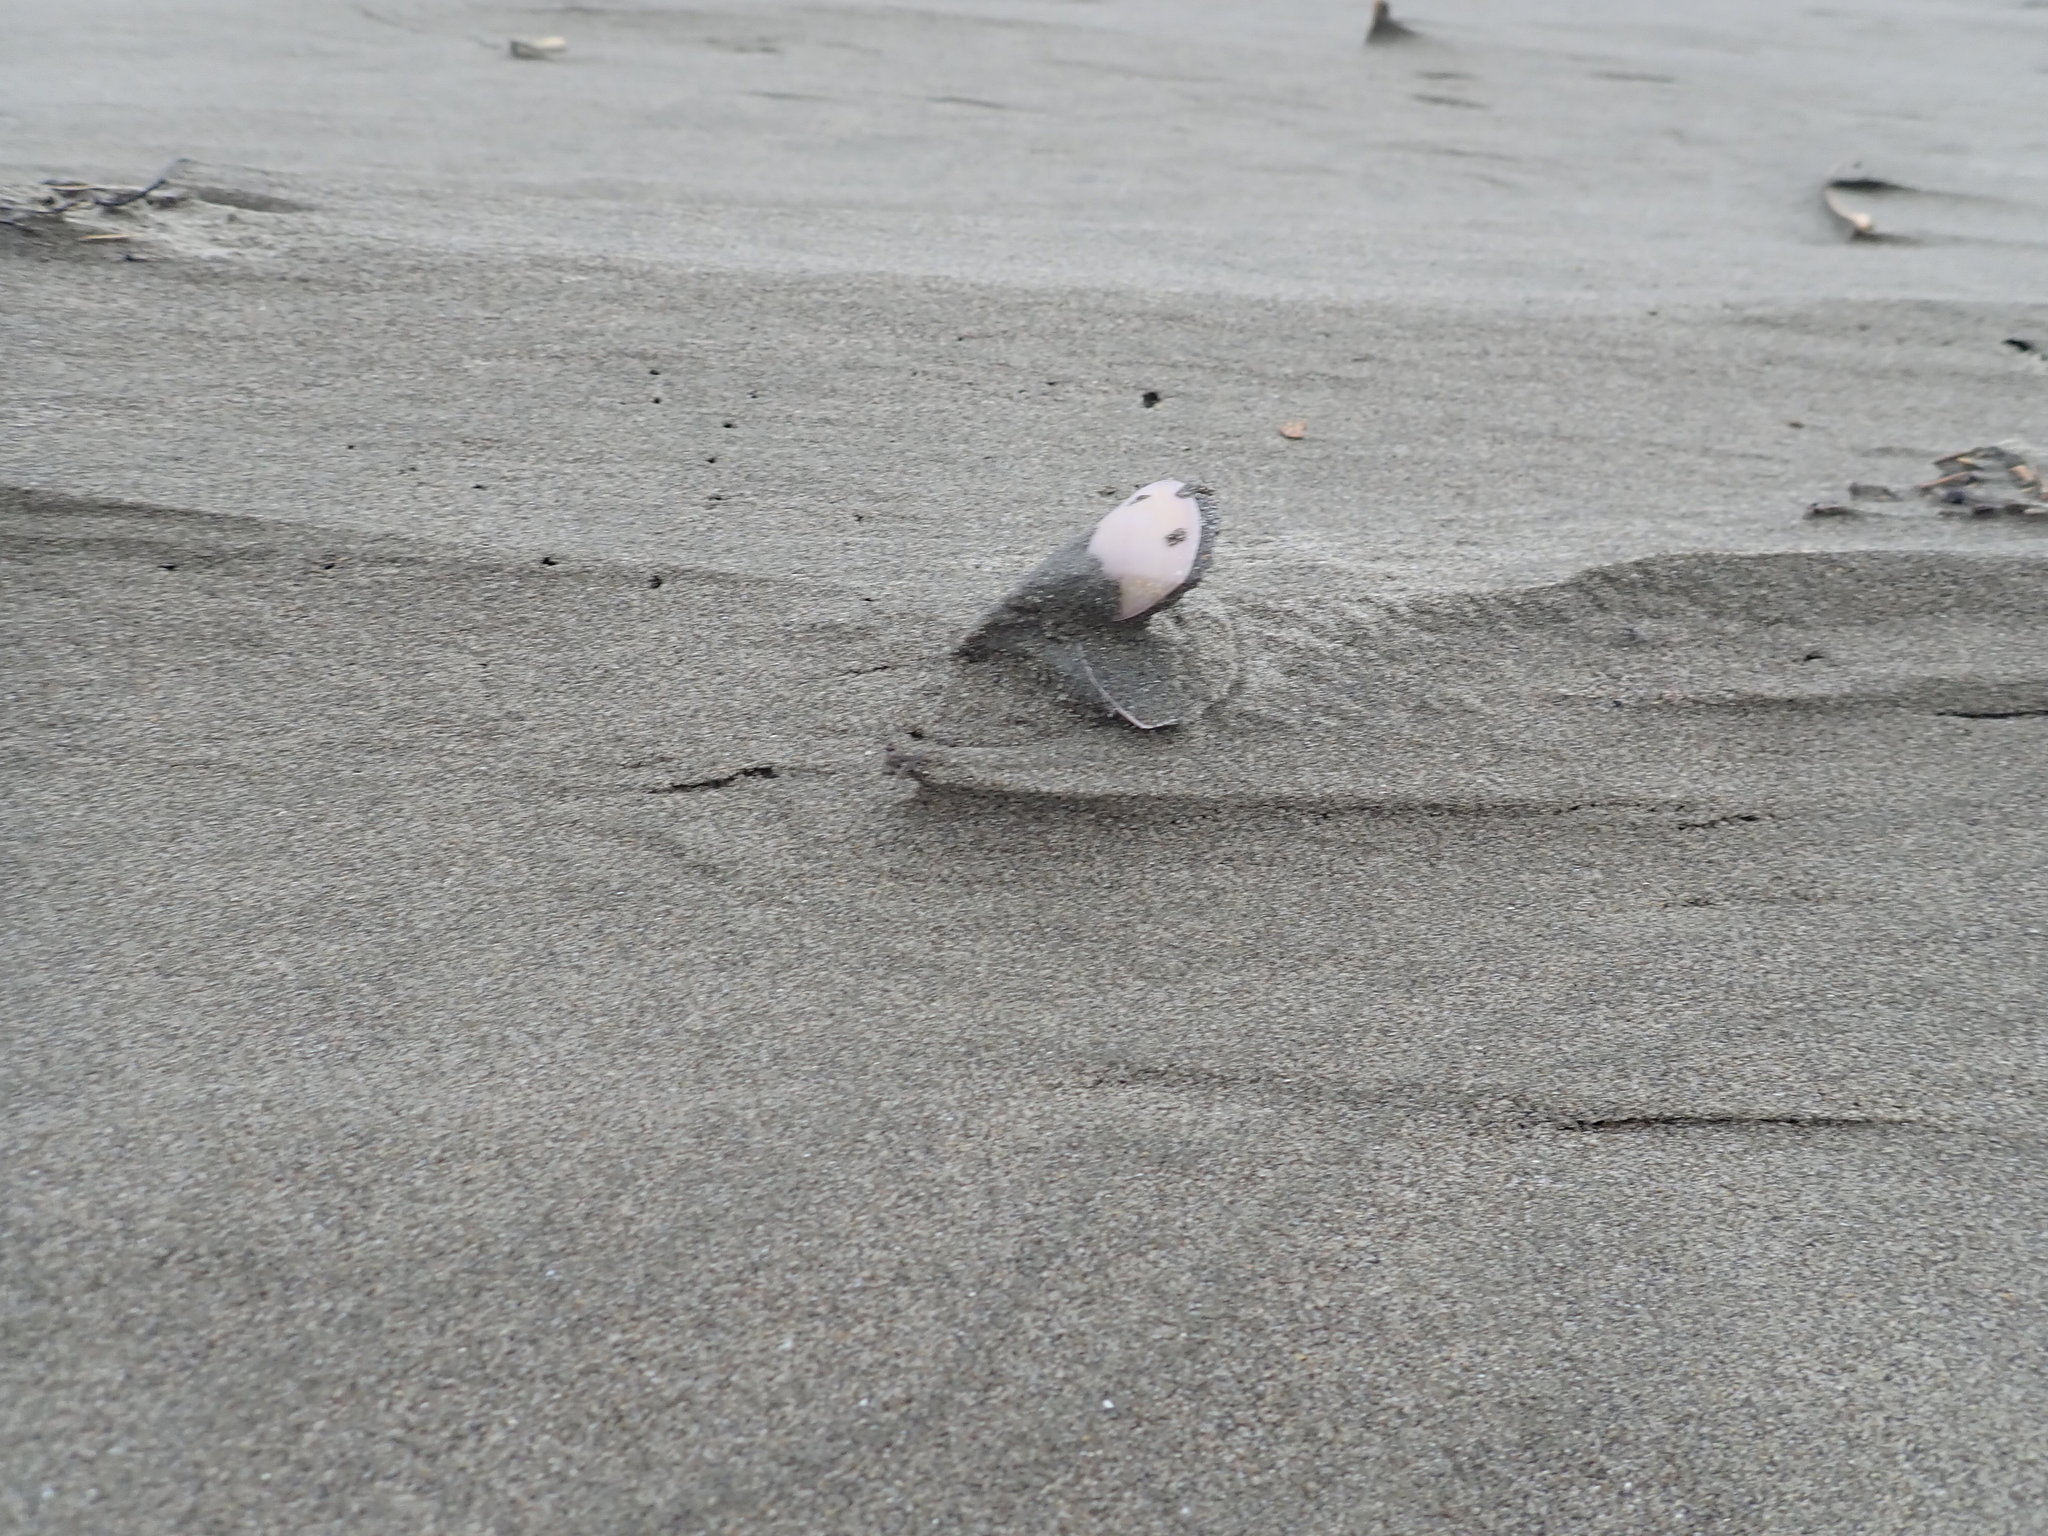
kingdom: Animalia
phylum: Mollusca
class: Bivalvia
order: Venerida
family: Mactridae
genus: Crassula
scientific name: Crassula aequilatera
